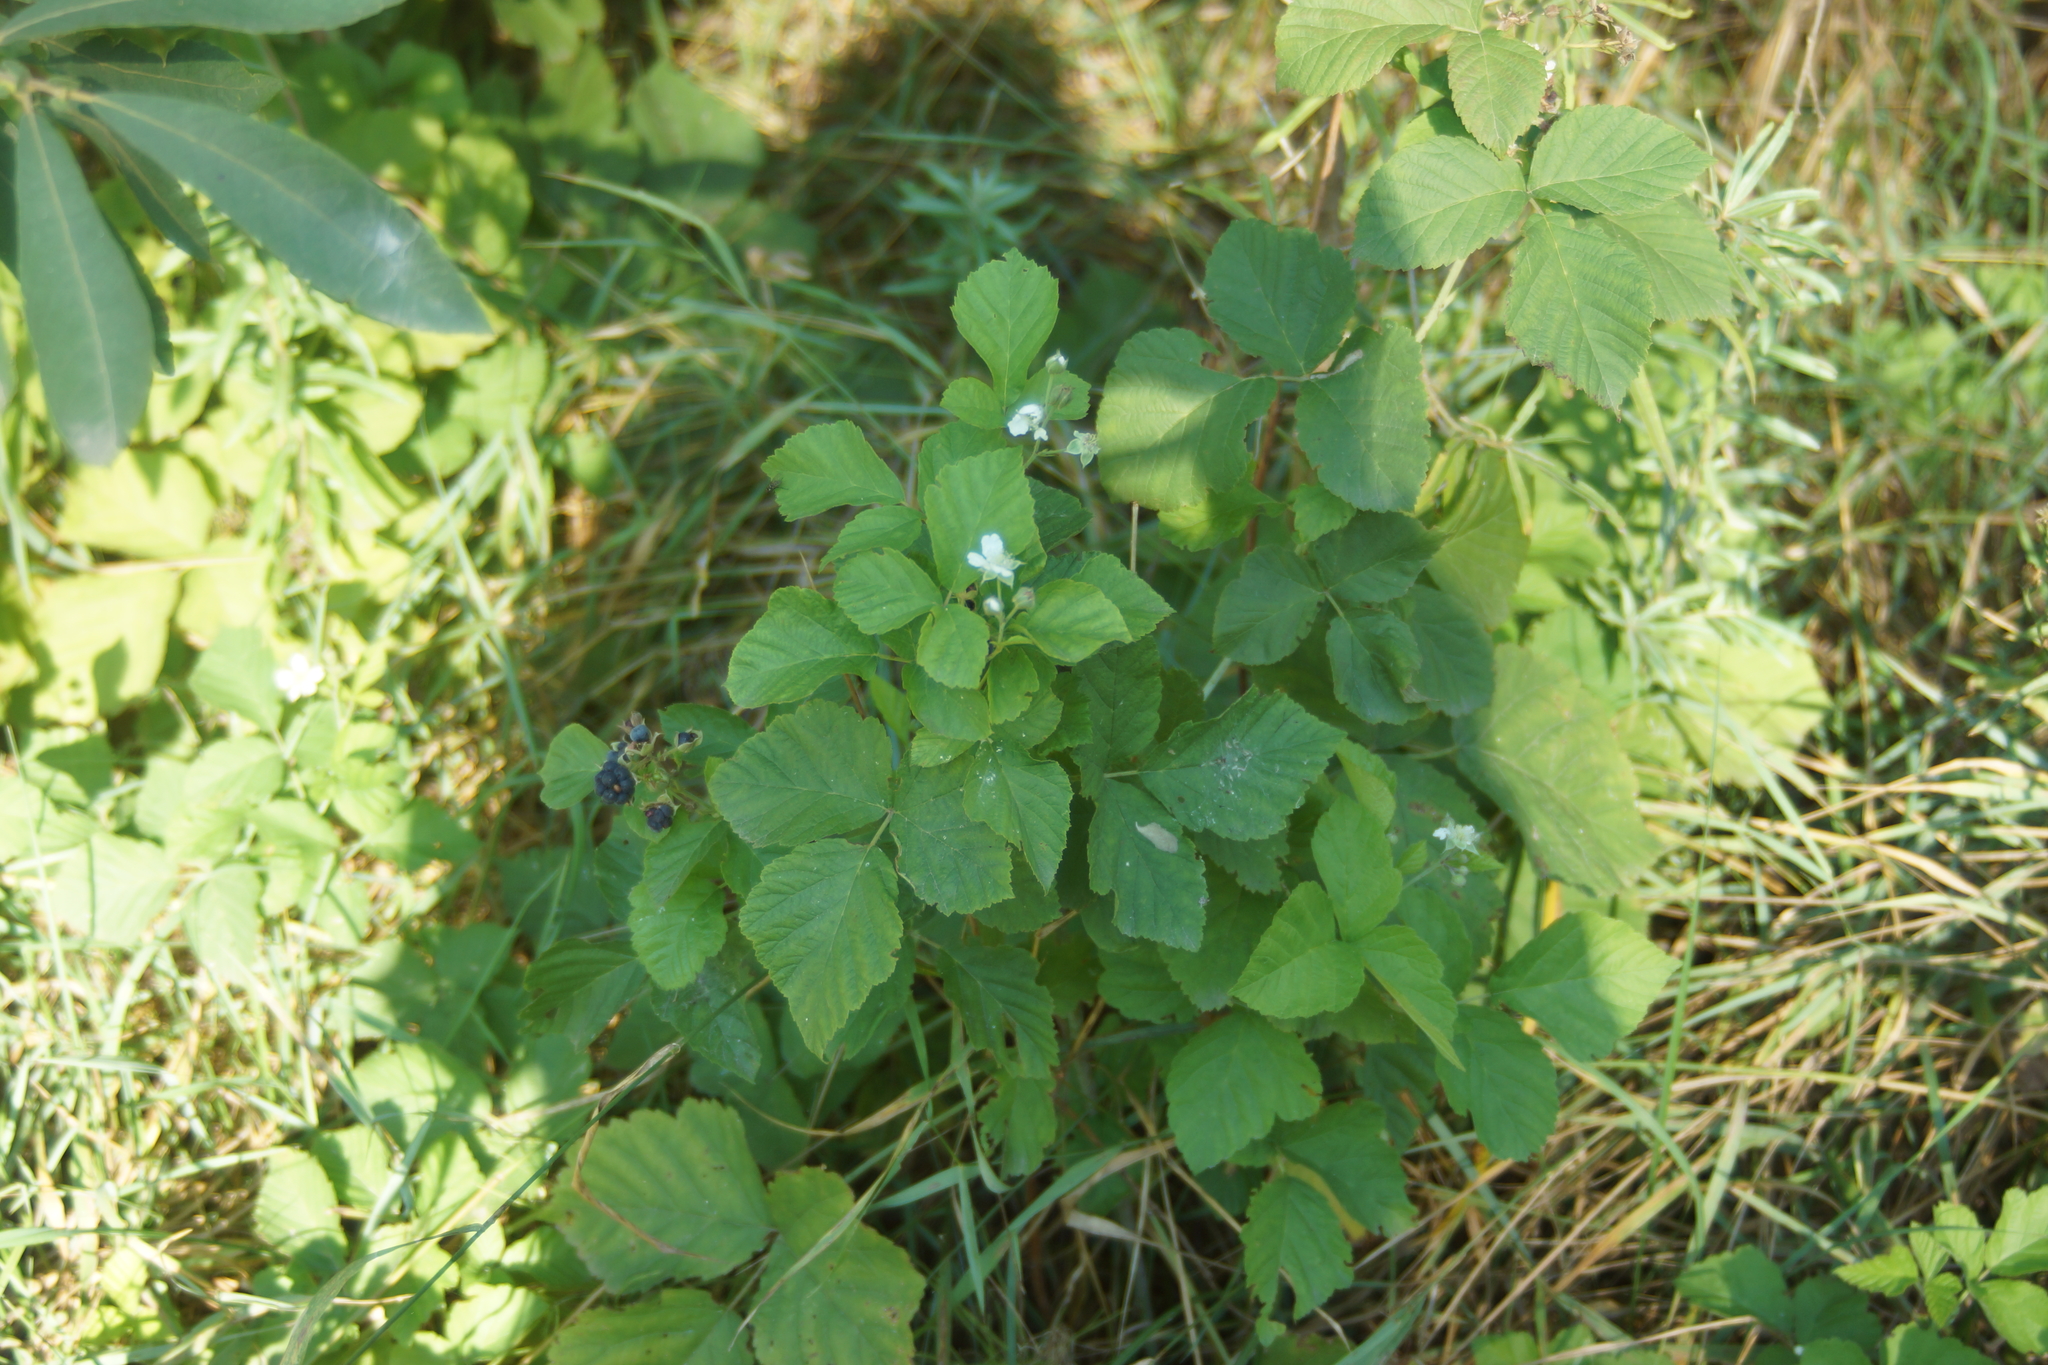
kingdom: Plantae
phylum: Tracheophyta
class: Magnoliopsida
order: Rosales
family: Rosaceae
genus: Rubus
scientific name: Rubus caesius
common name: Dewberry
